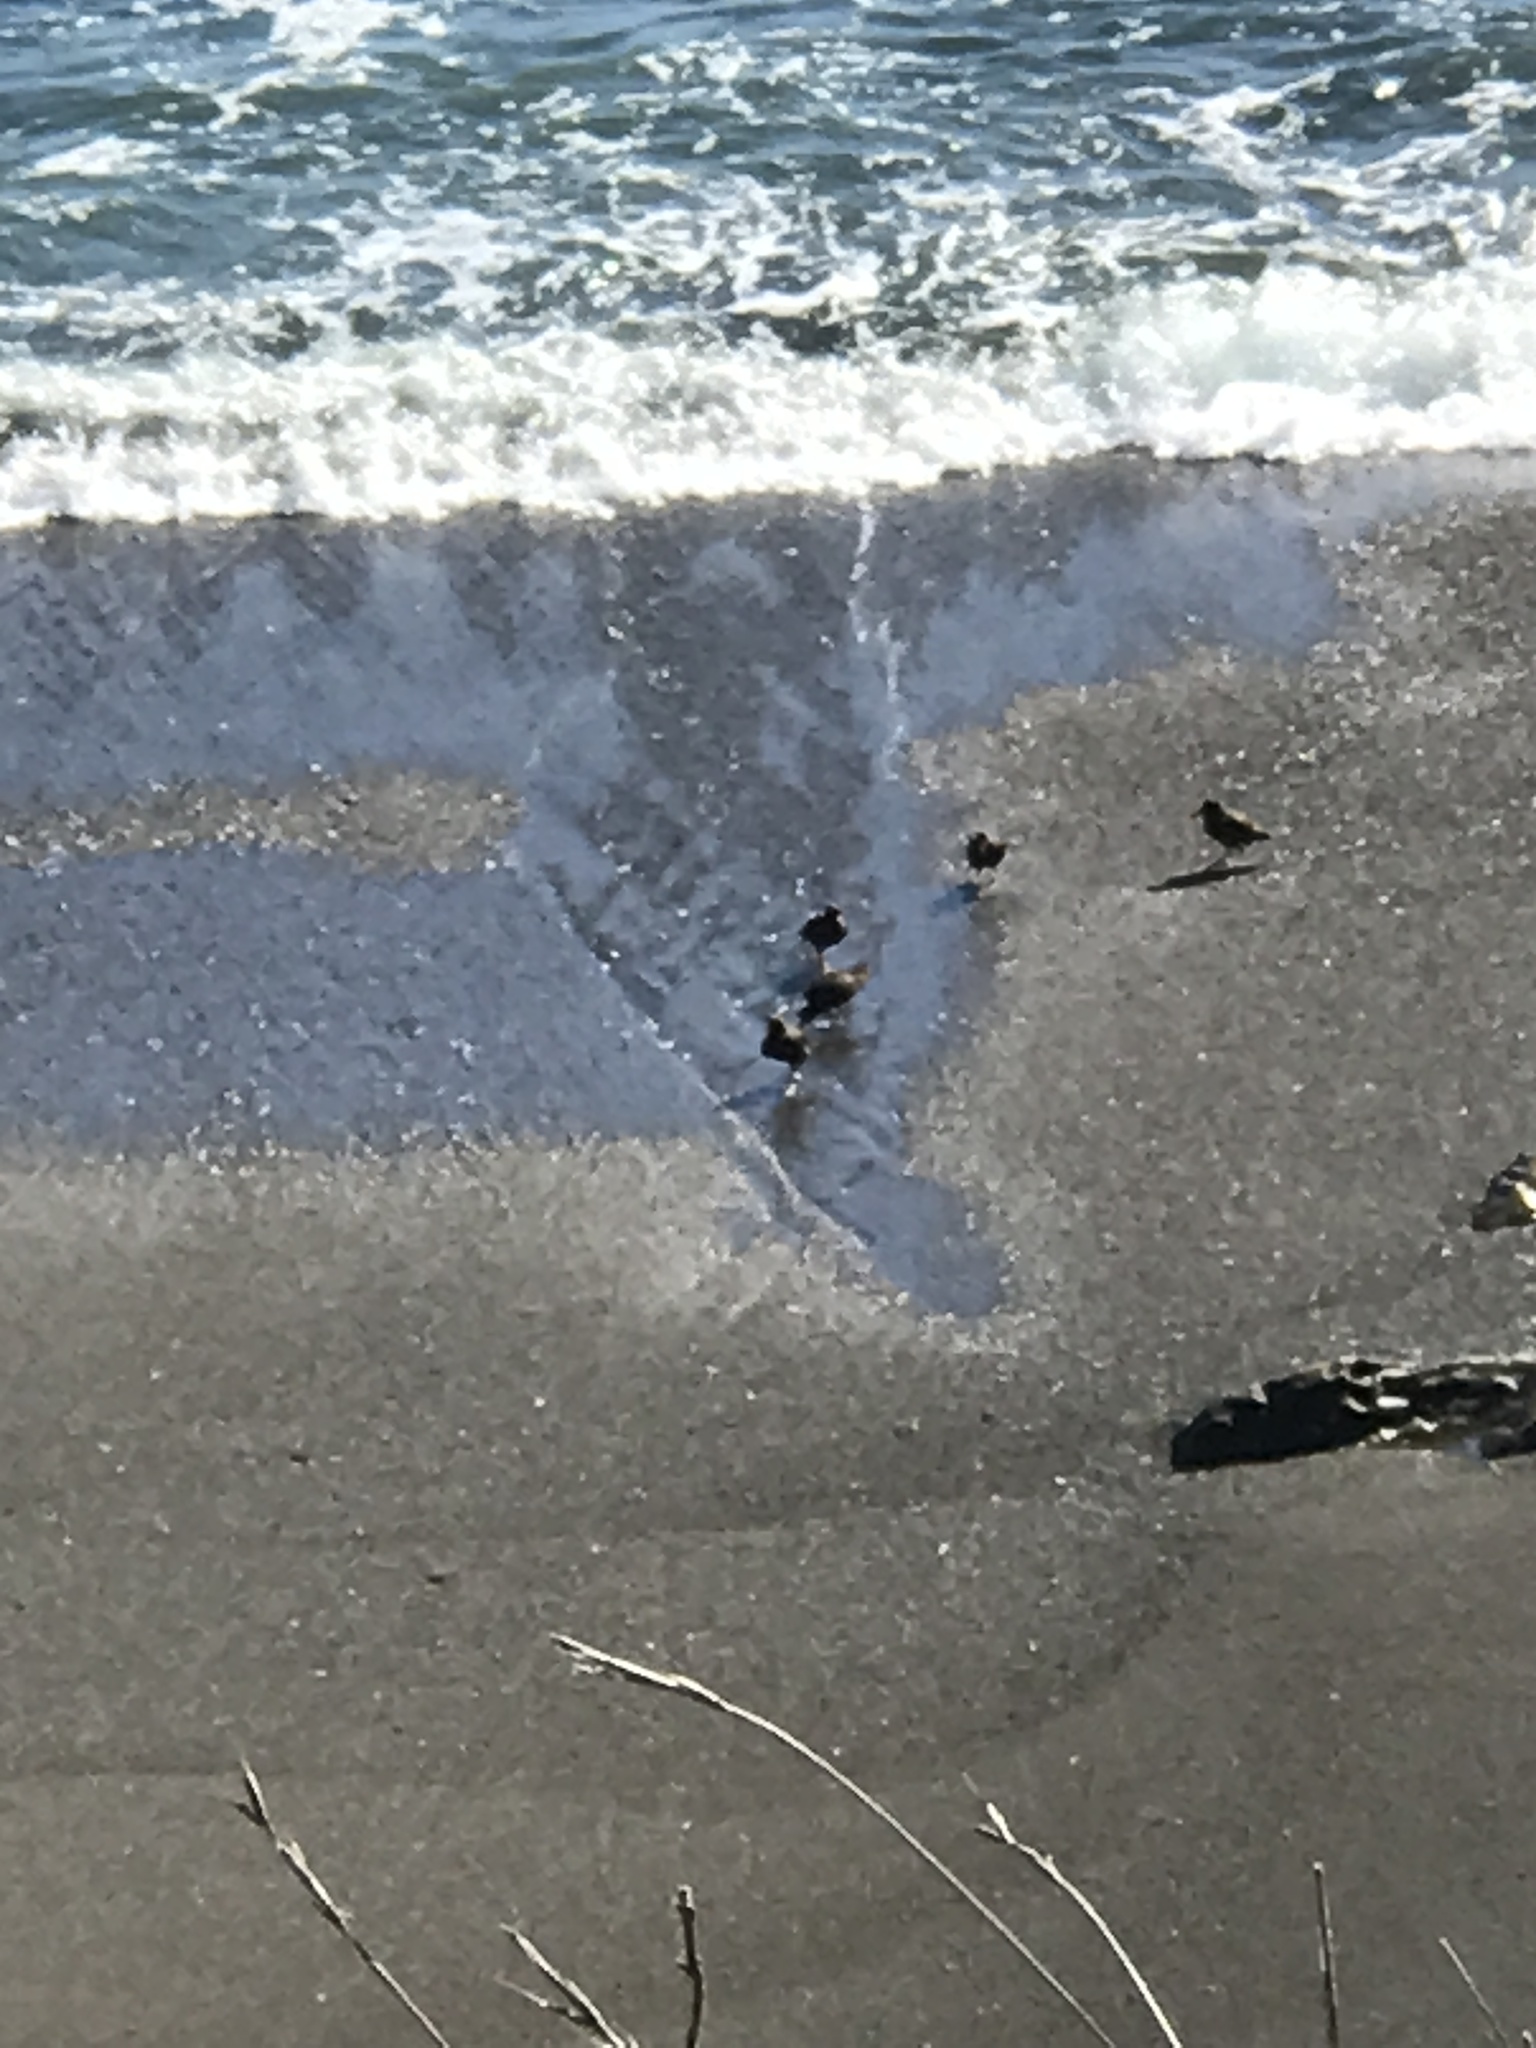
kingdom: Animalia
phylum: Chordata
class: Aves
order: Charadriiformes
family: Haematopodidae
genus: Haematopus
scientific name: Haematopus bachmani
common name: Black oystercatcher
